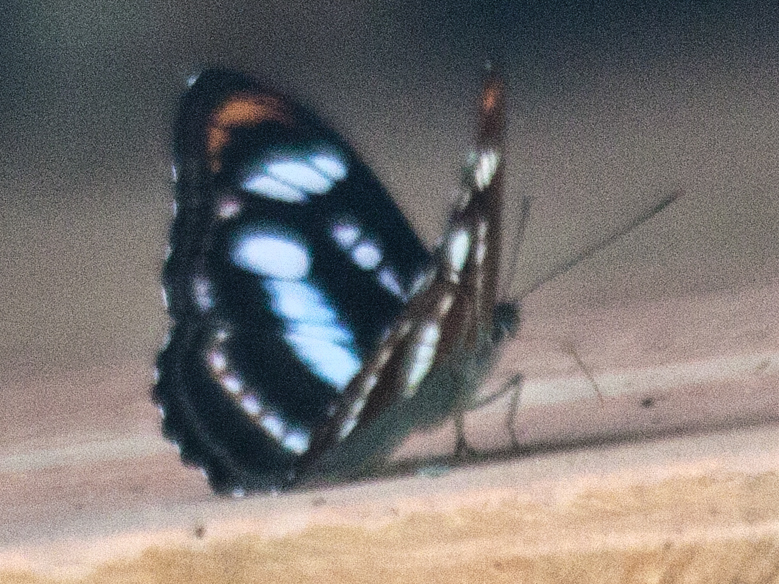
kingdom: Animalia
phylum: Arthropoda
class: Insecta
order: Lepidoptera
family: Nymphalidae
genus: Parathyma
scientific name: Parathyma nefte
